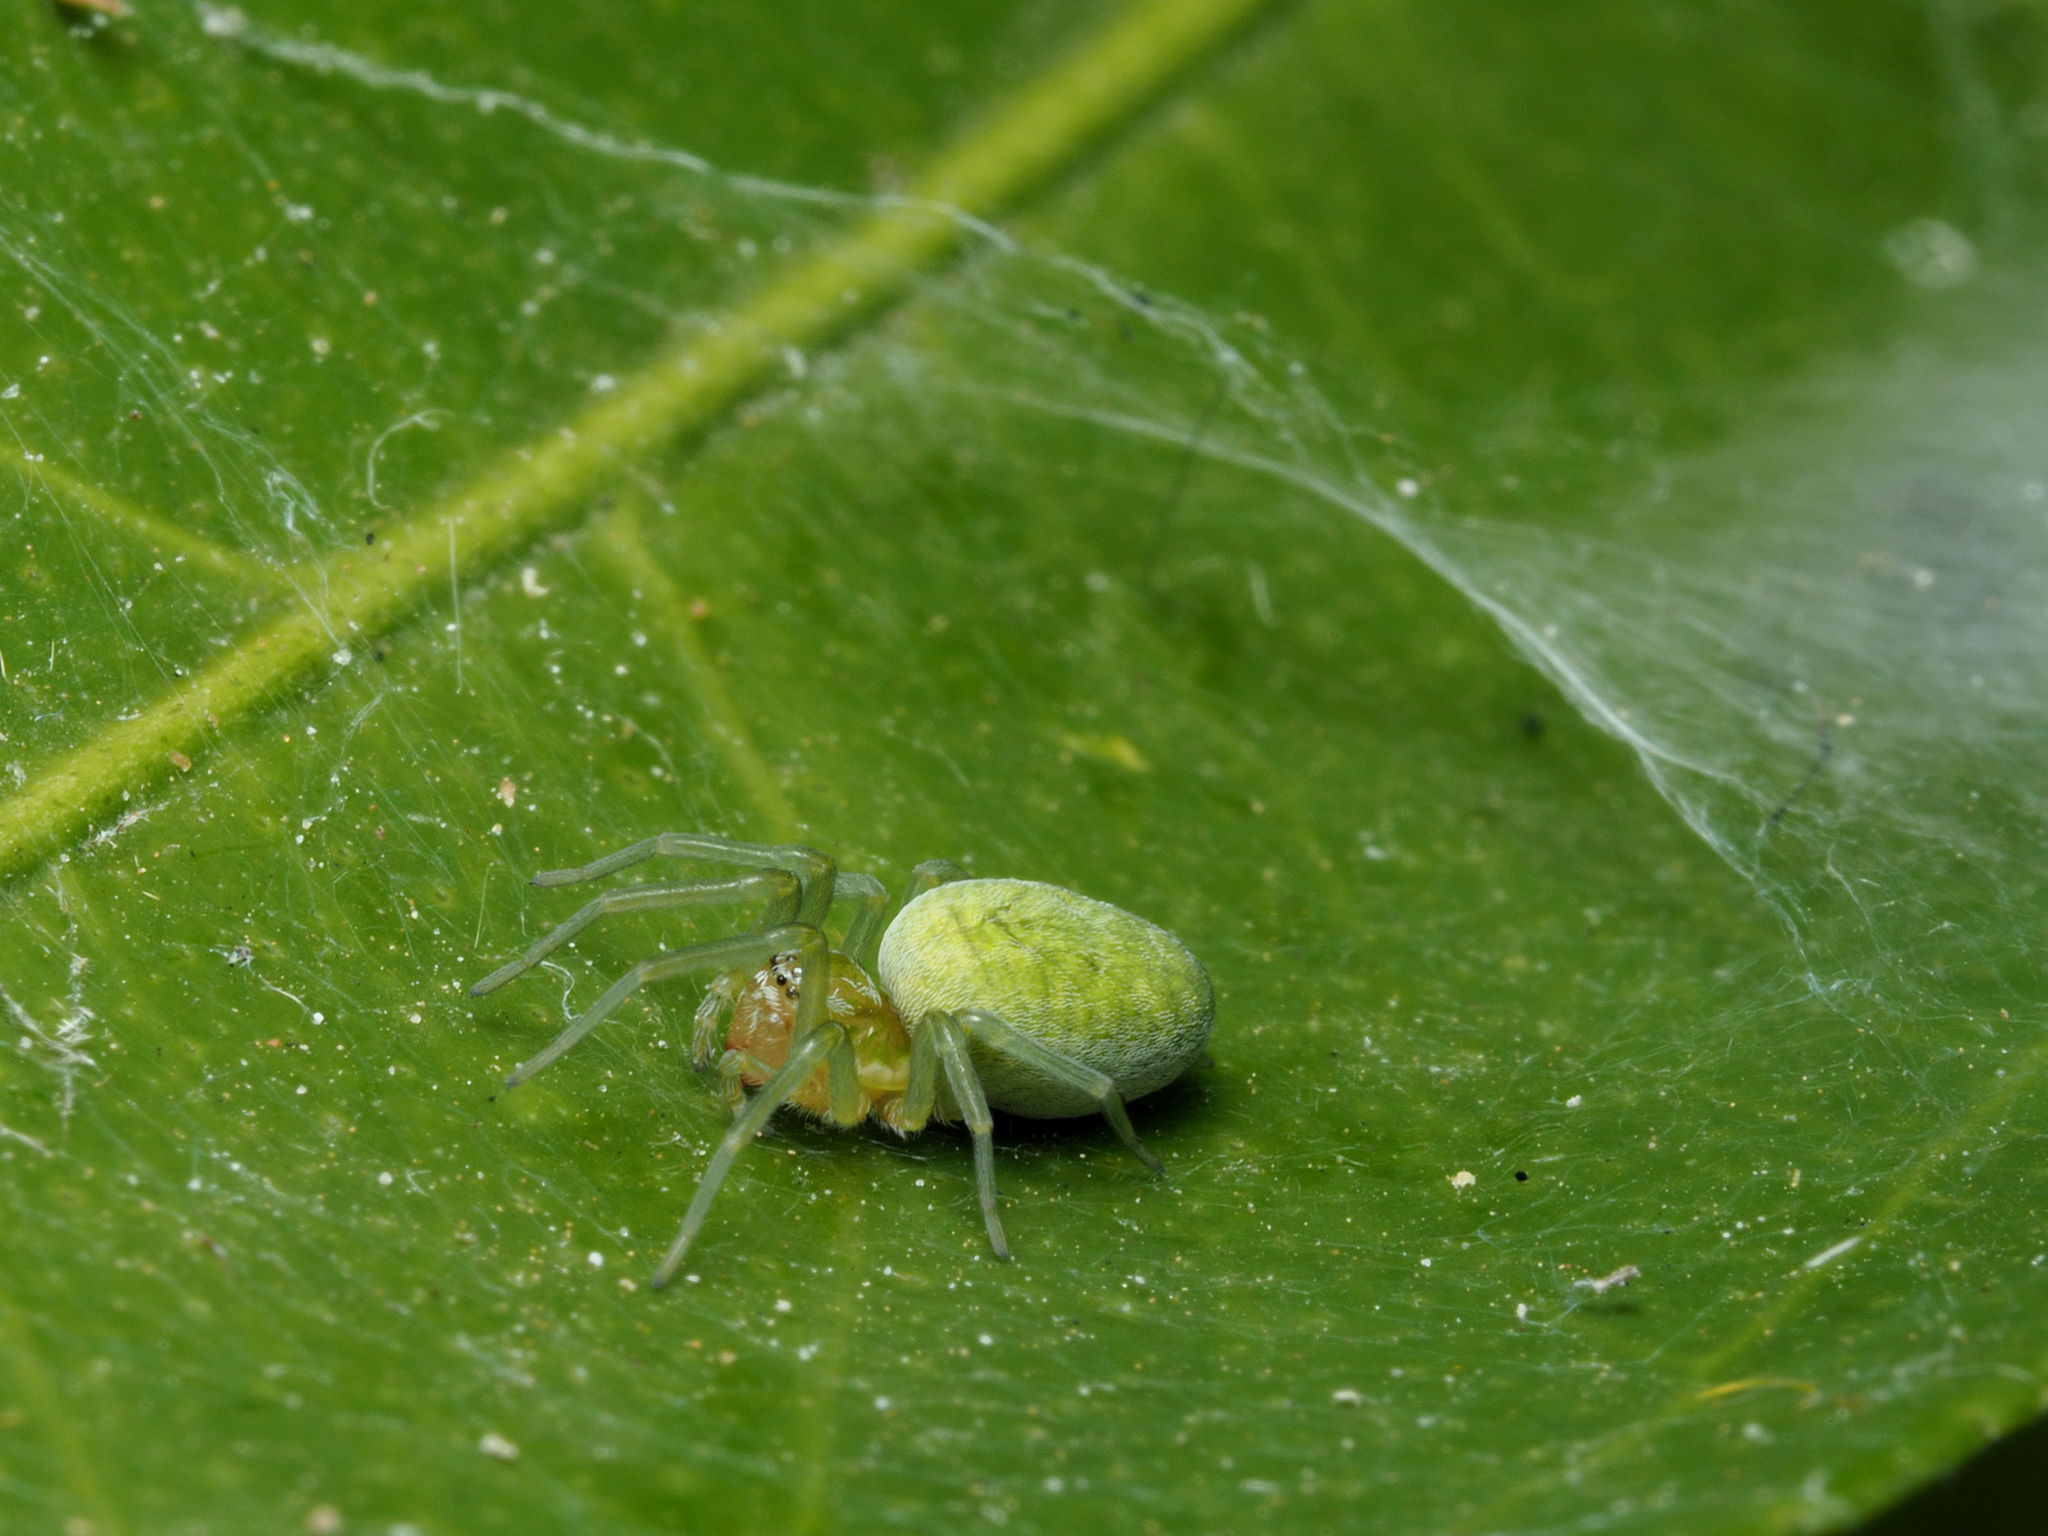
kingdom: Animalia
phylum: Arthropoda
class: Arachnida
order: Araneae
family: Dictynidae
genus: Nigma
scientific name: Nigma walckenaeri
